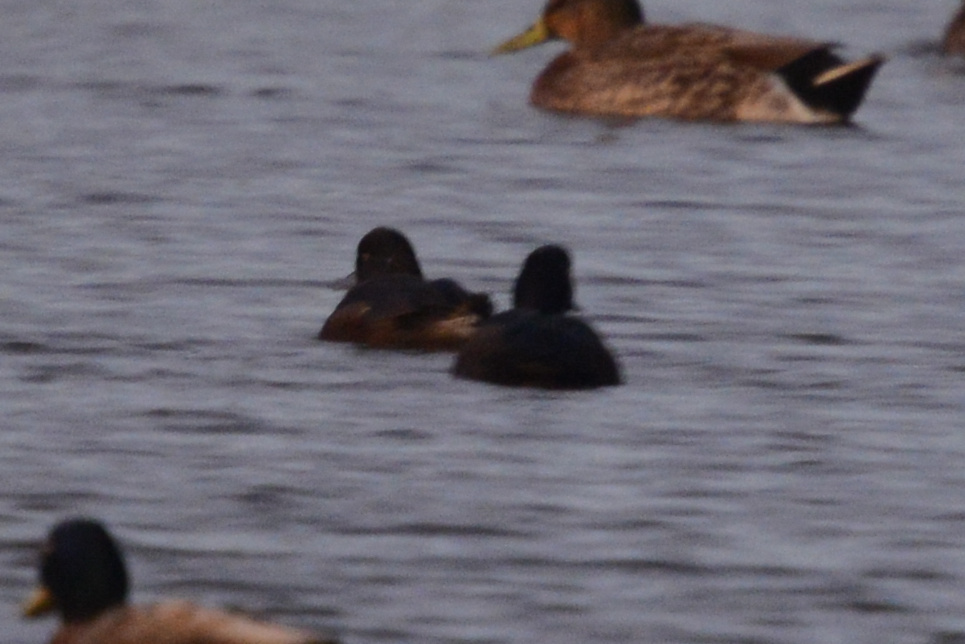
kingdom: Animalia
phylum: Chordata
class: Aves
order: Anseriformes
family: Anatidae
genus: Aythya
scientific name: Aythya novaeseelandiae
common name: New zealand scaup
